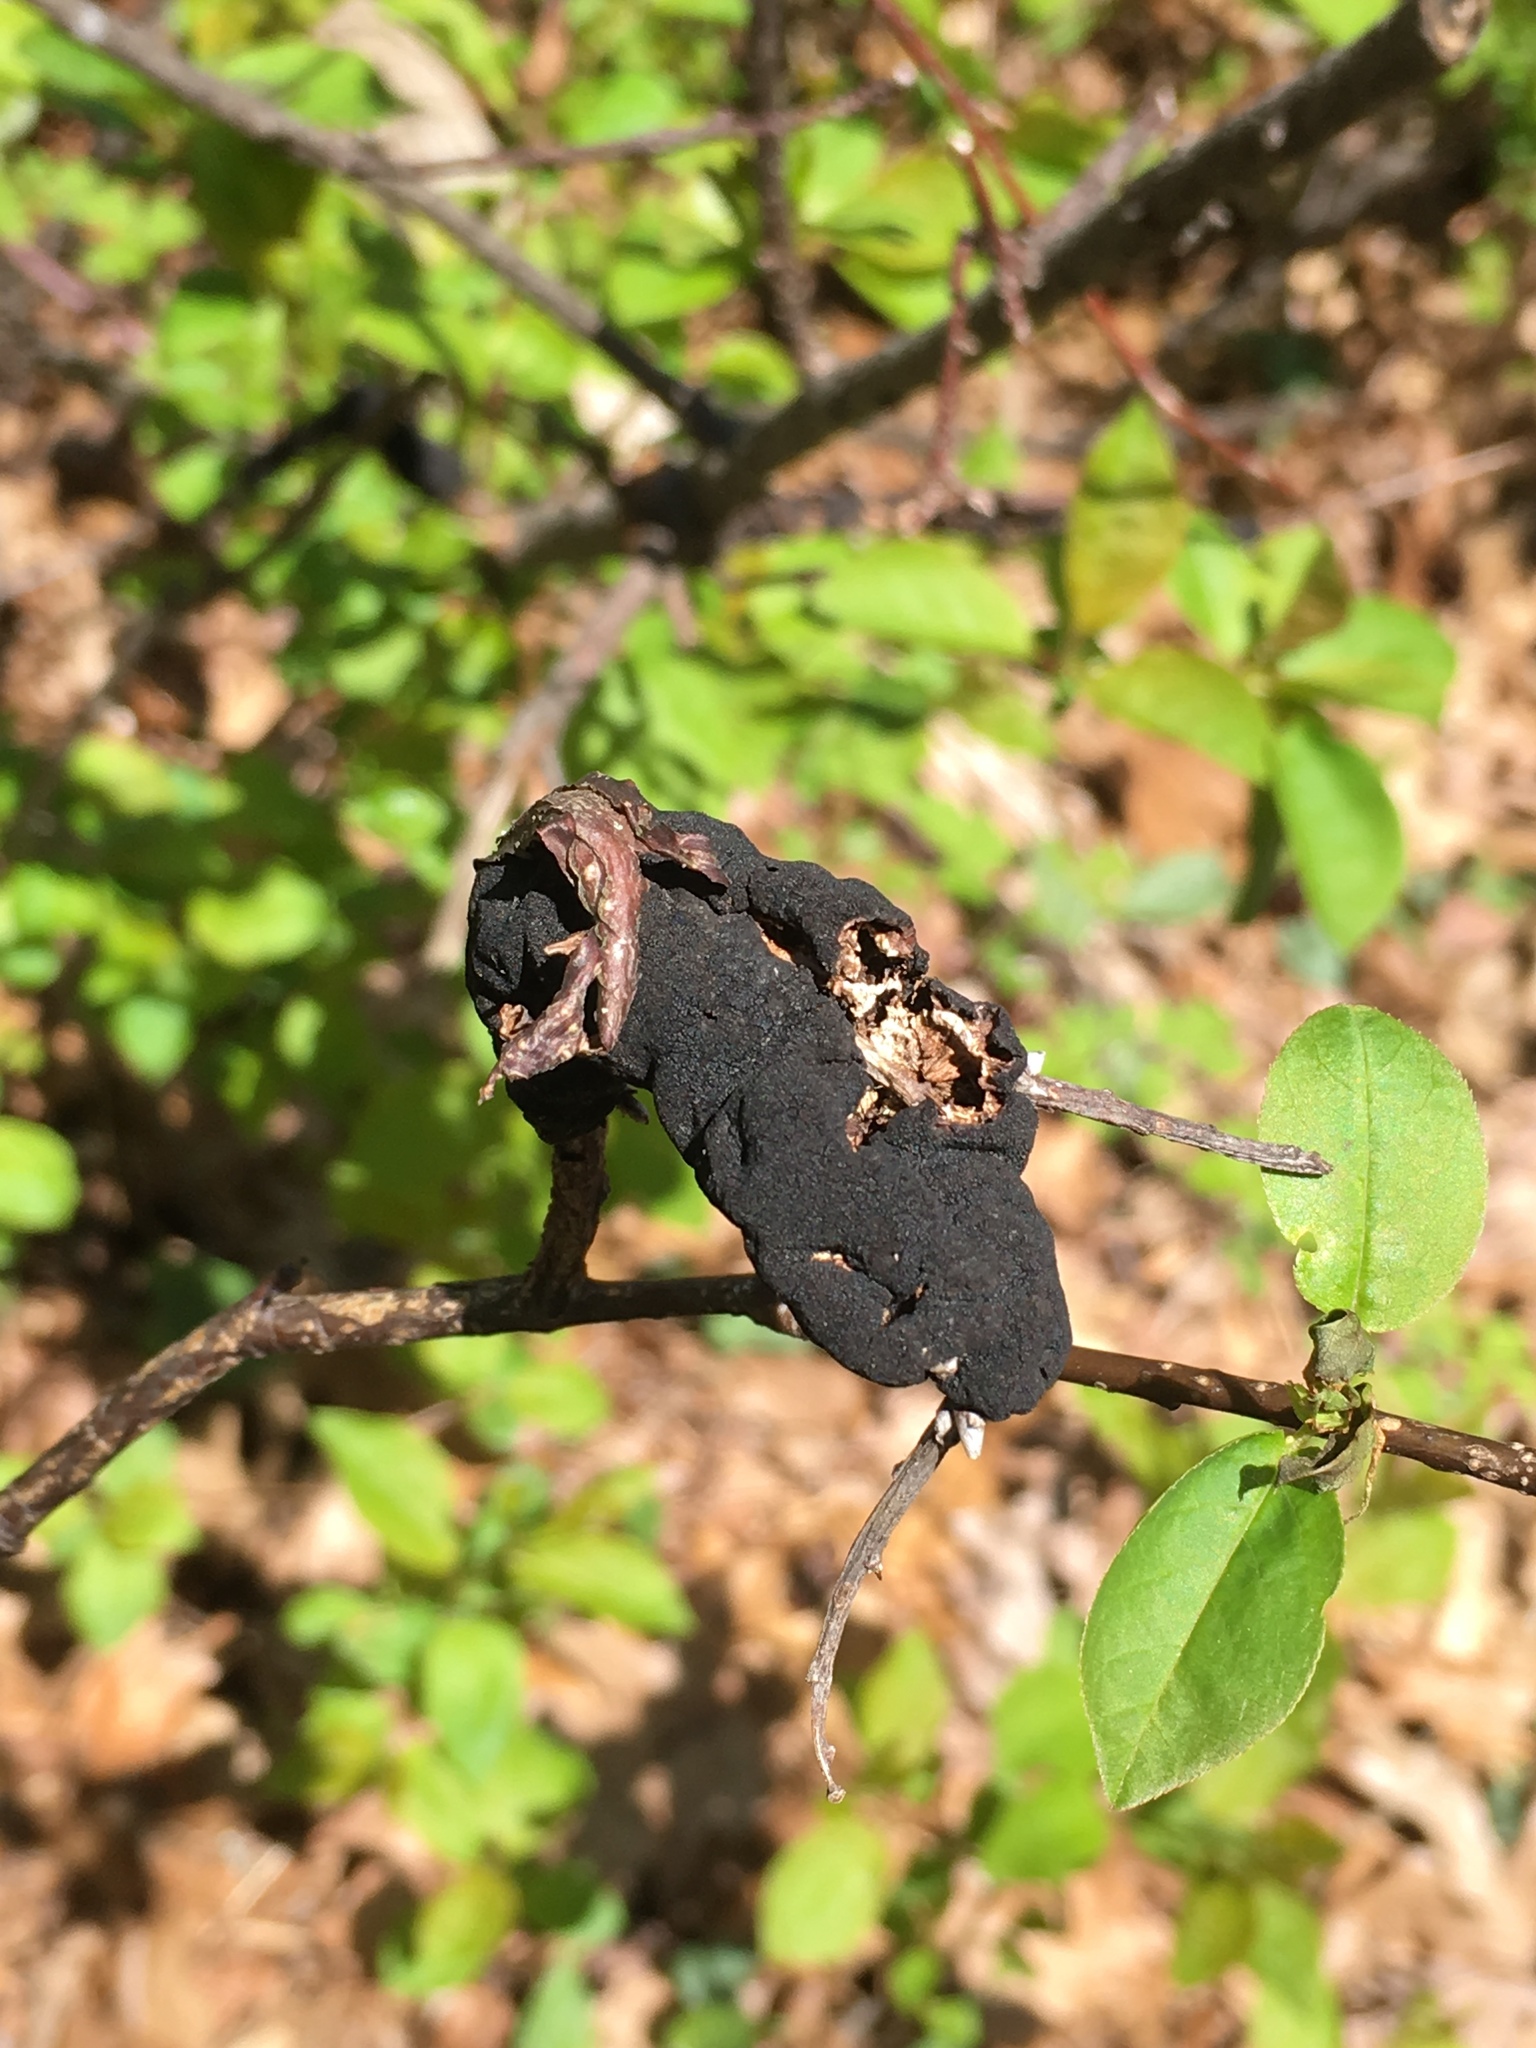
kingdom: Fungi
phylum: Ascomycota
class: Dothideomycetes
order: Venturiales
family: Venturiaceae
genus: Apiosporina
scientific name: Apiosporina morbosa
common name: Black knot
